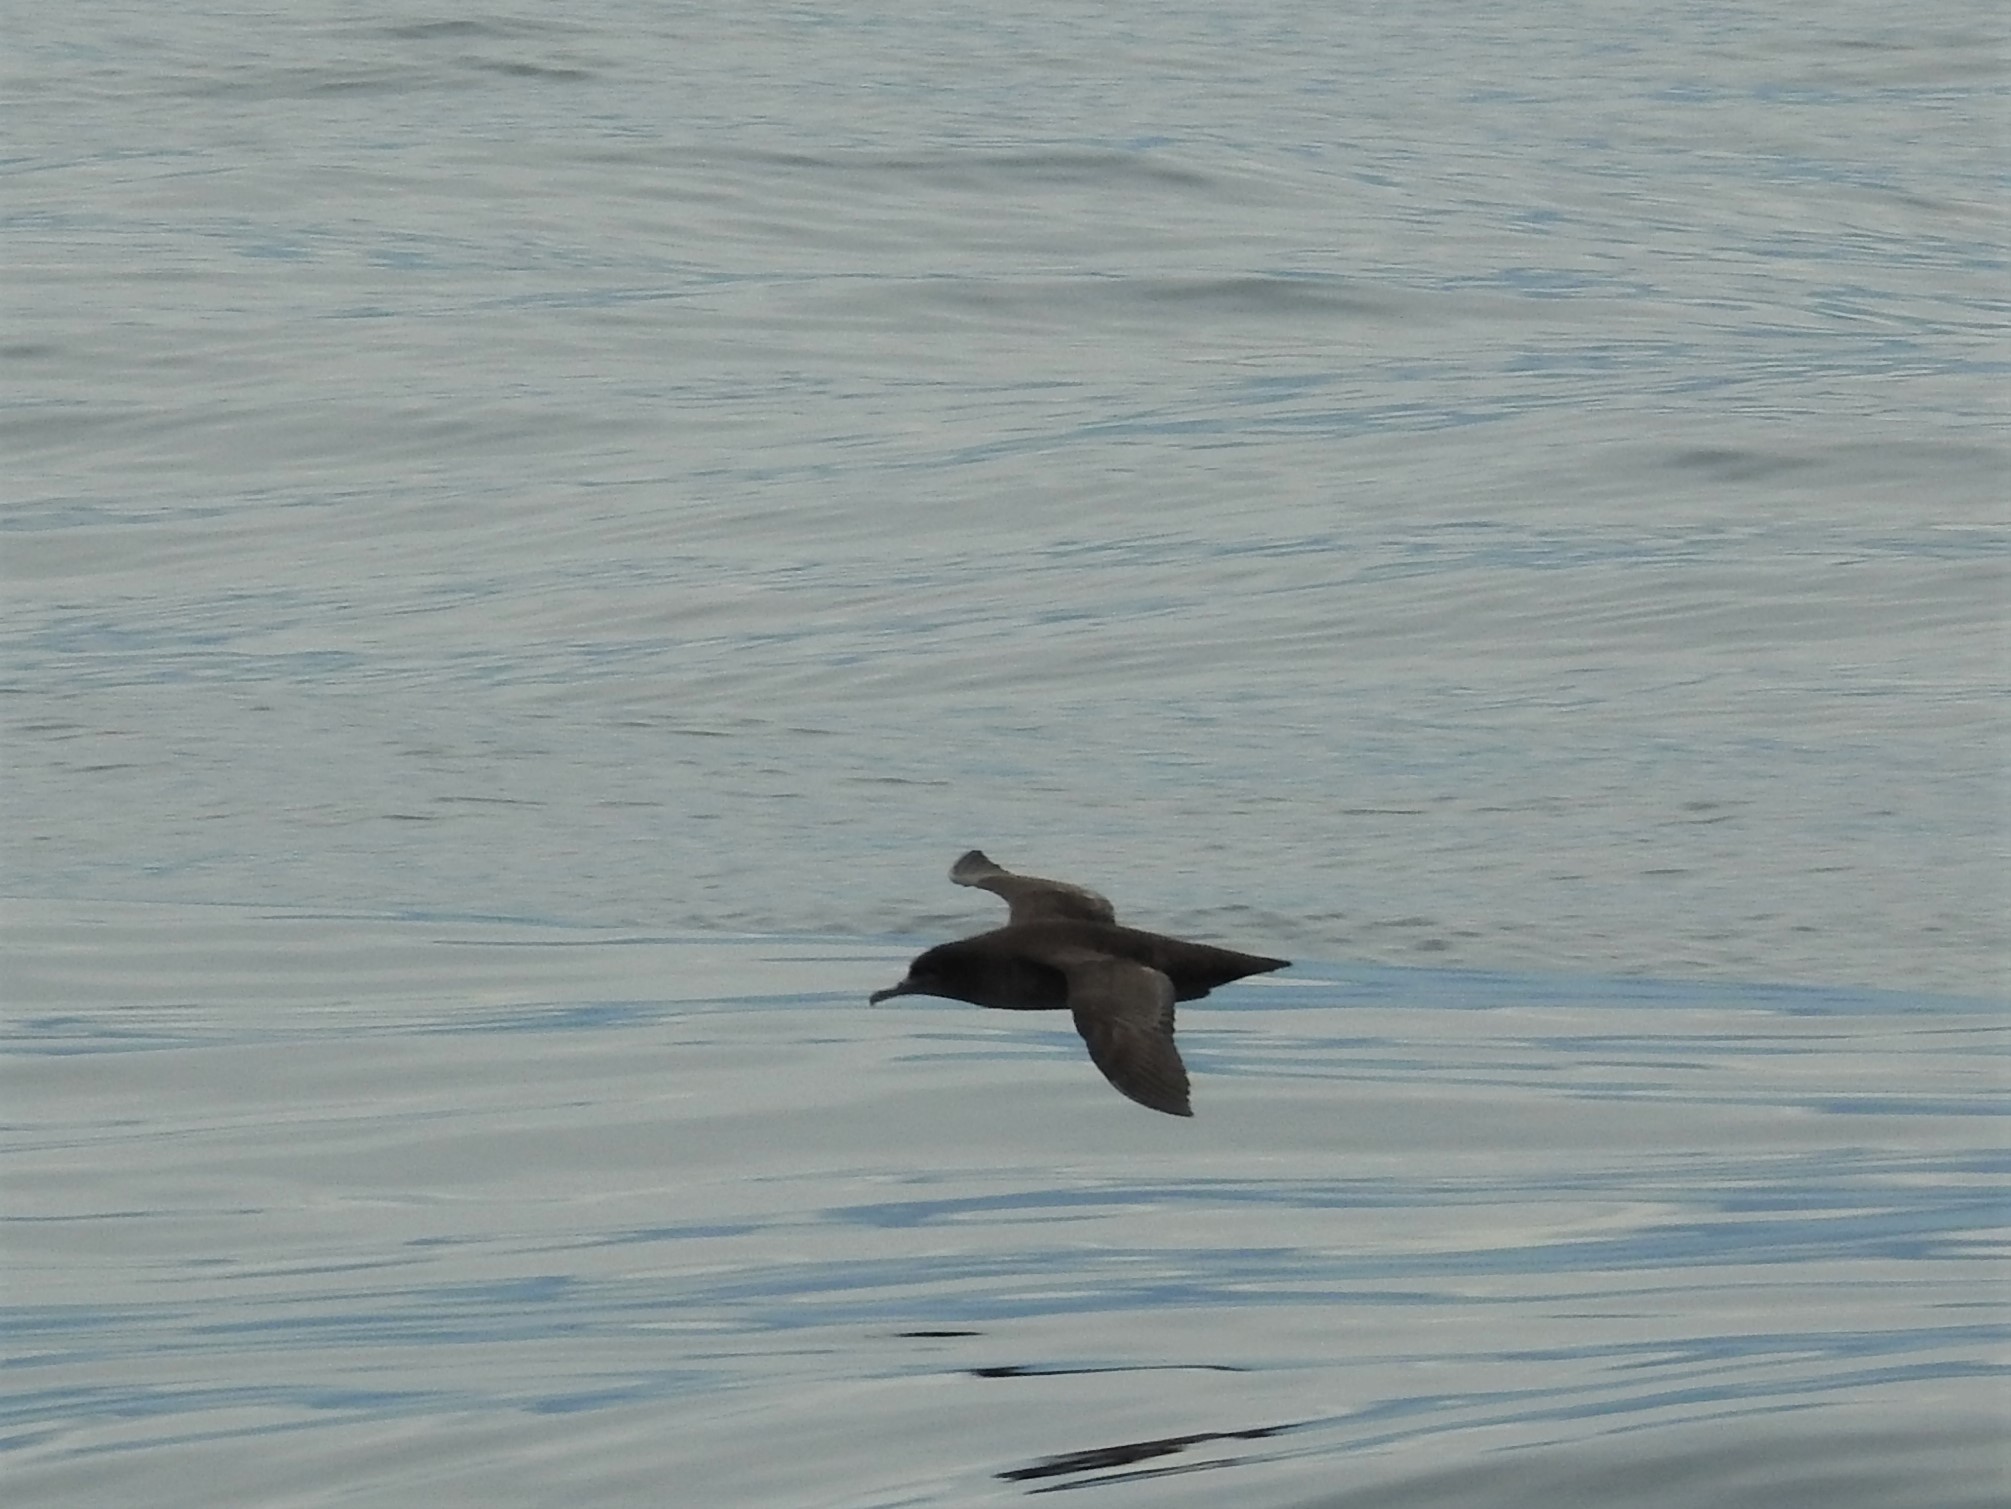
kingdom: Animalia
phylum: Chordata
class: Aves
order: Procellariiformes
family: Procellariidae
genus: Puffinus
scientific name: Puffinus griseus
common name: Sooty shearwater
